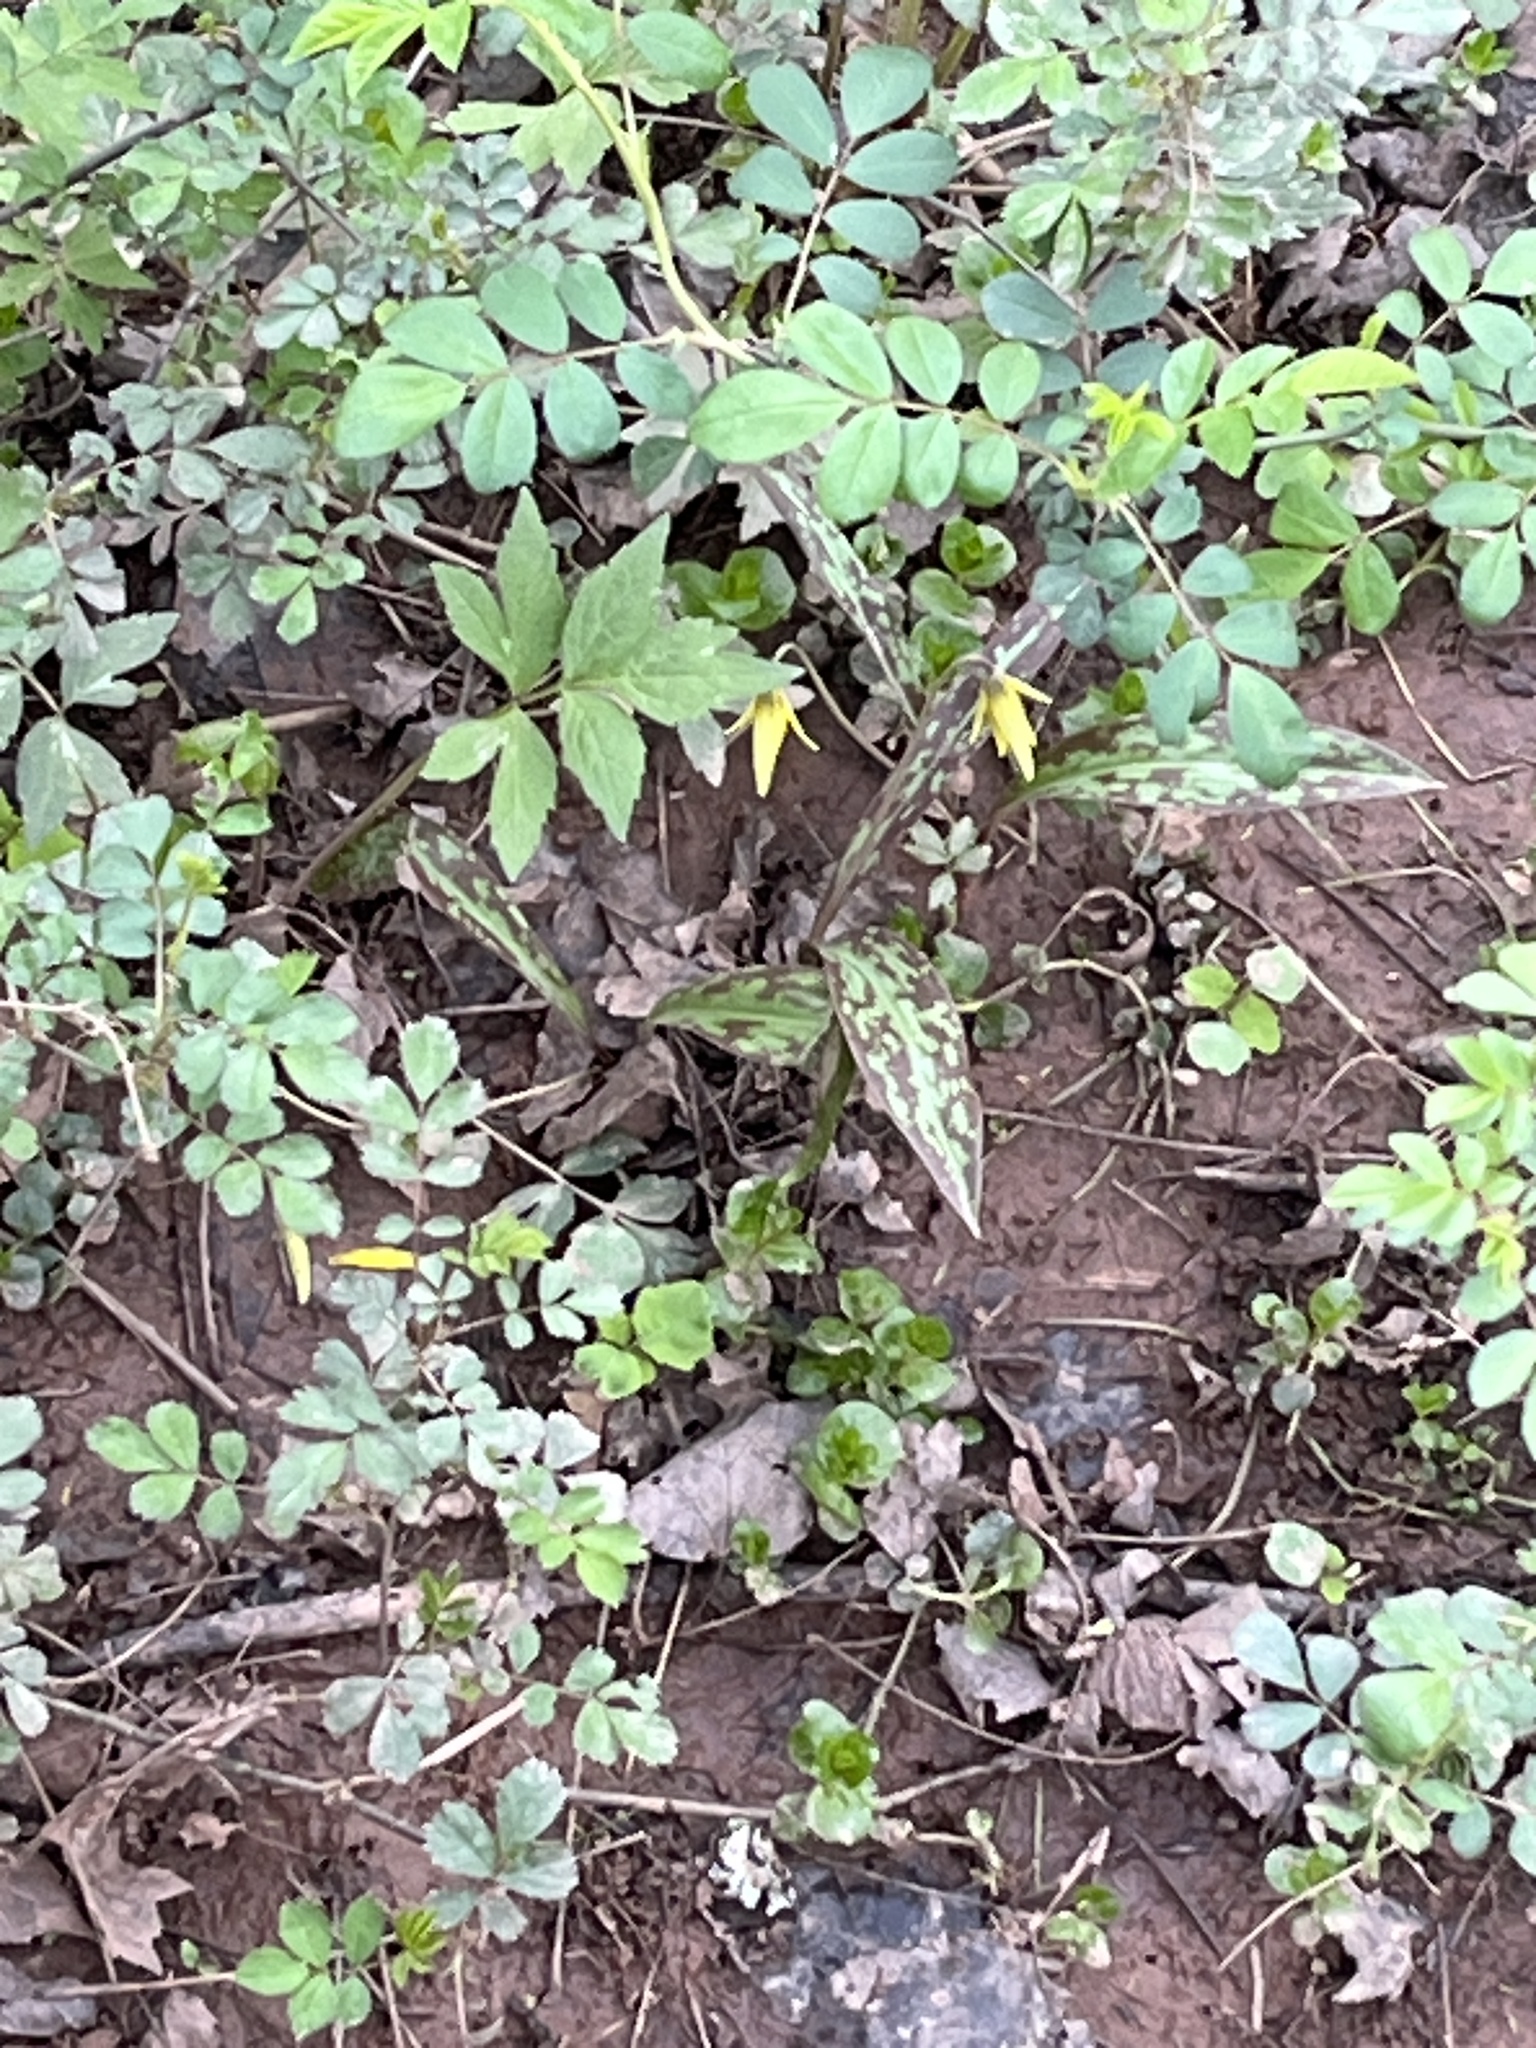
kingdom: Plantae
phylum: Tracheophyta
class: Liliopsida
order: Liliales
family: Liliaceae
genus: Erythronium
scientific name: Erythronium americanum
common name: Yellow adder's-tongue
